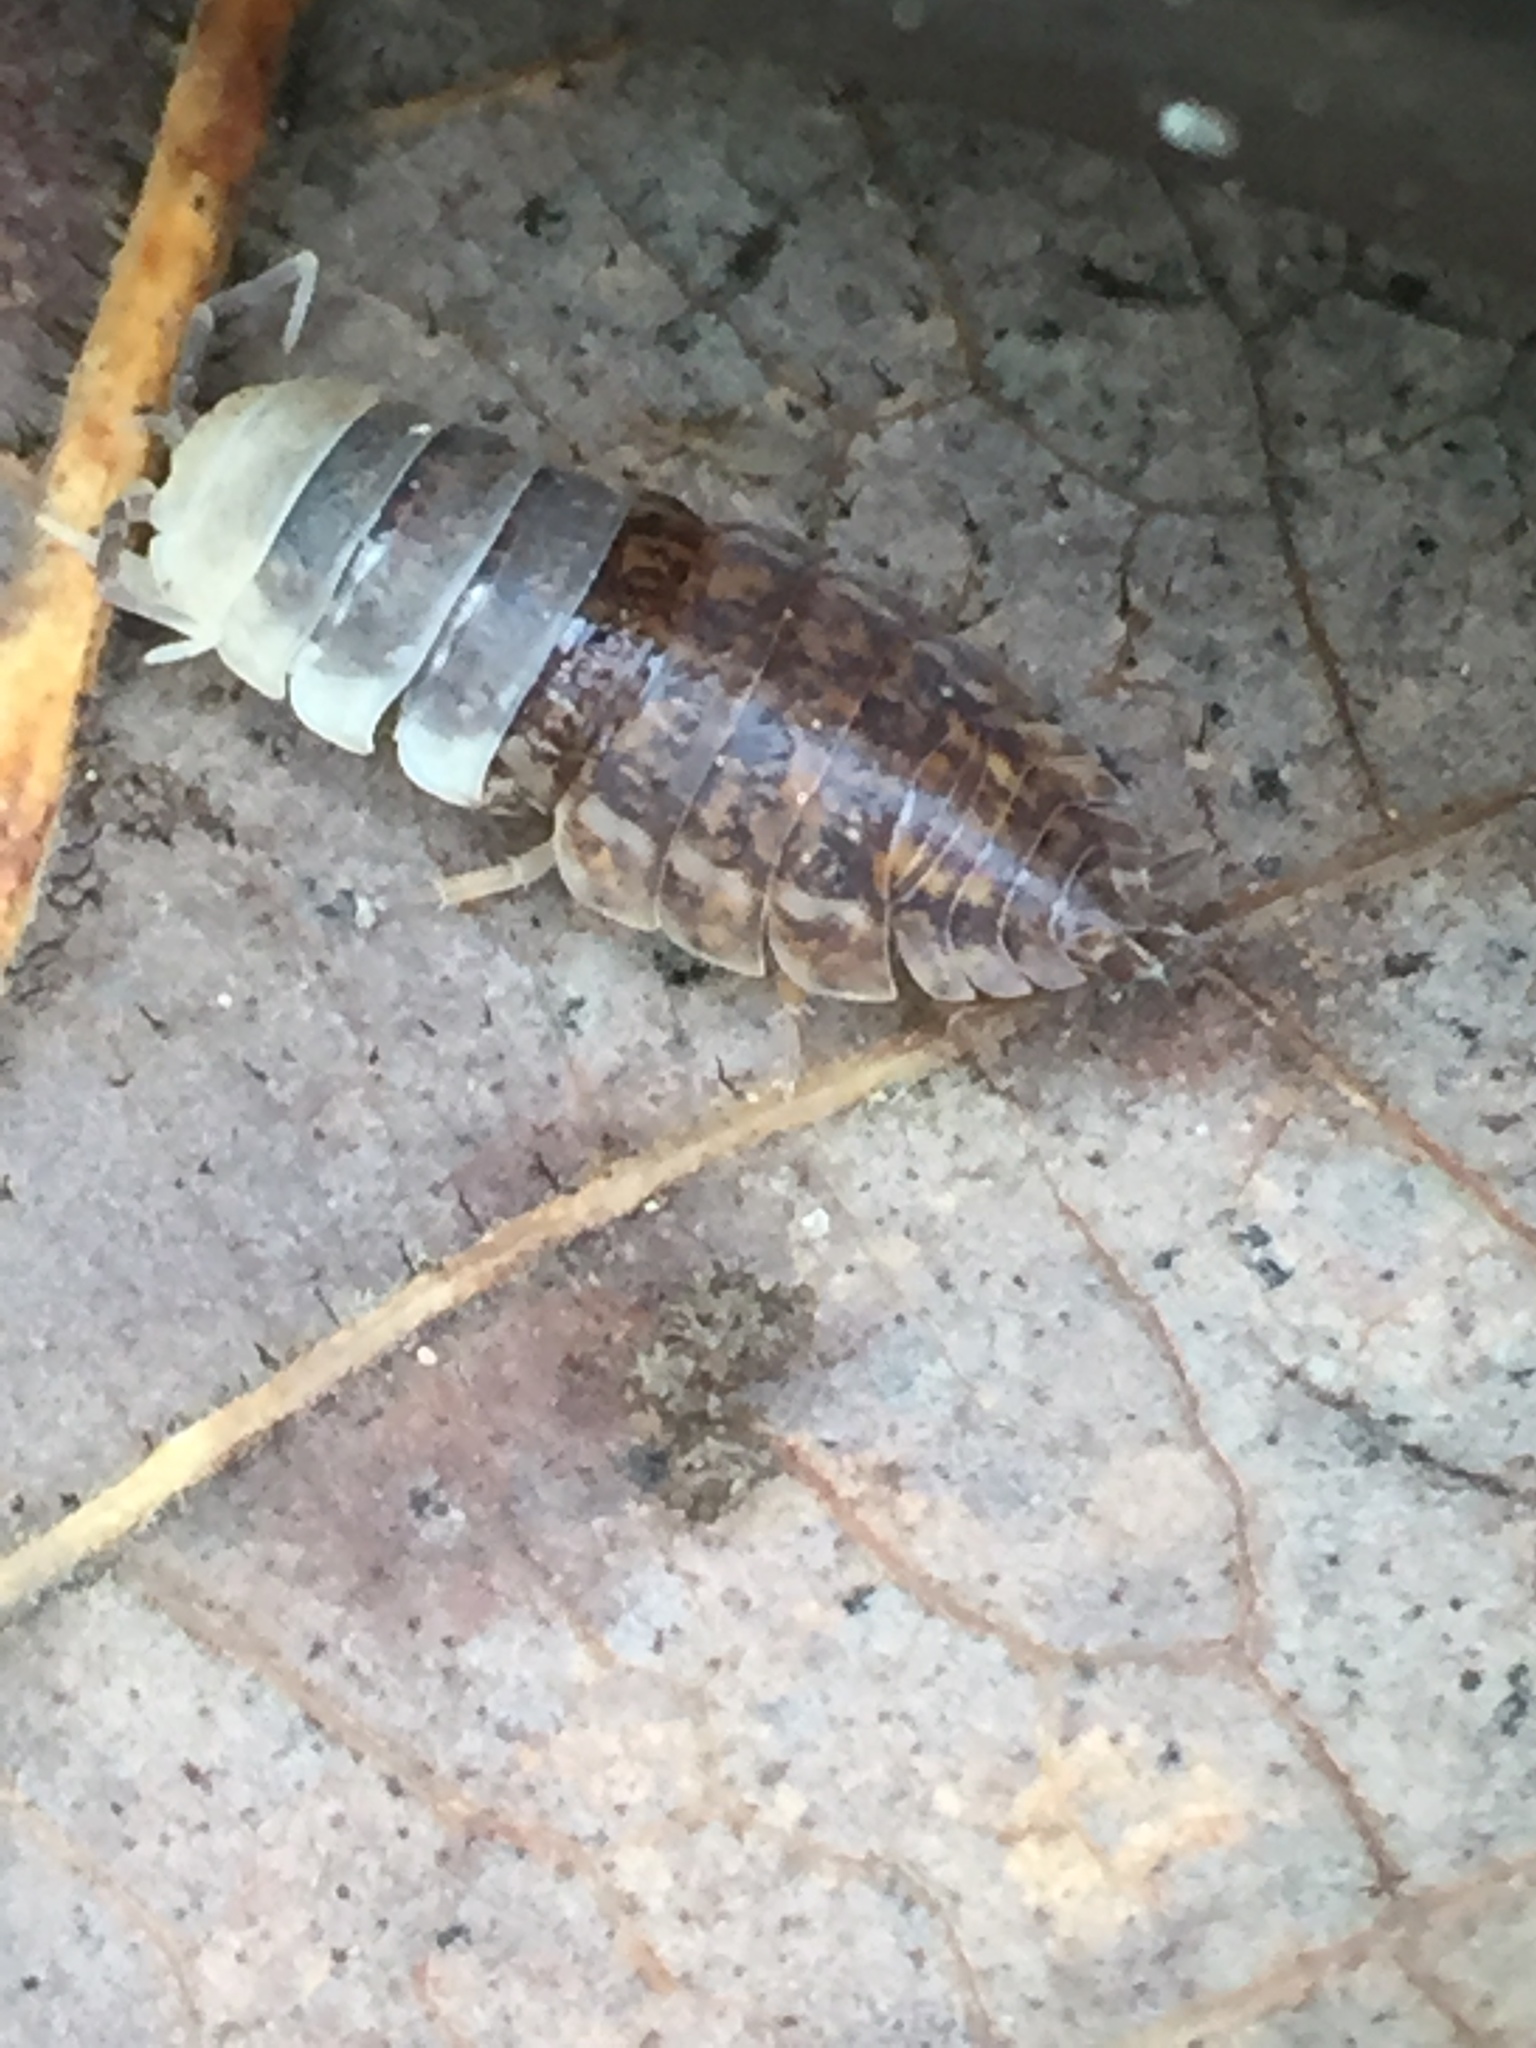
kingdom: Animalia
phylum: Arthropoda
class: Malacostraca
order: Isopoda
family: Trachelipodidae
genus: Trachelipus
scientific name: Trachelipus rathkii
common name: Isopod
